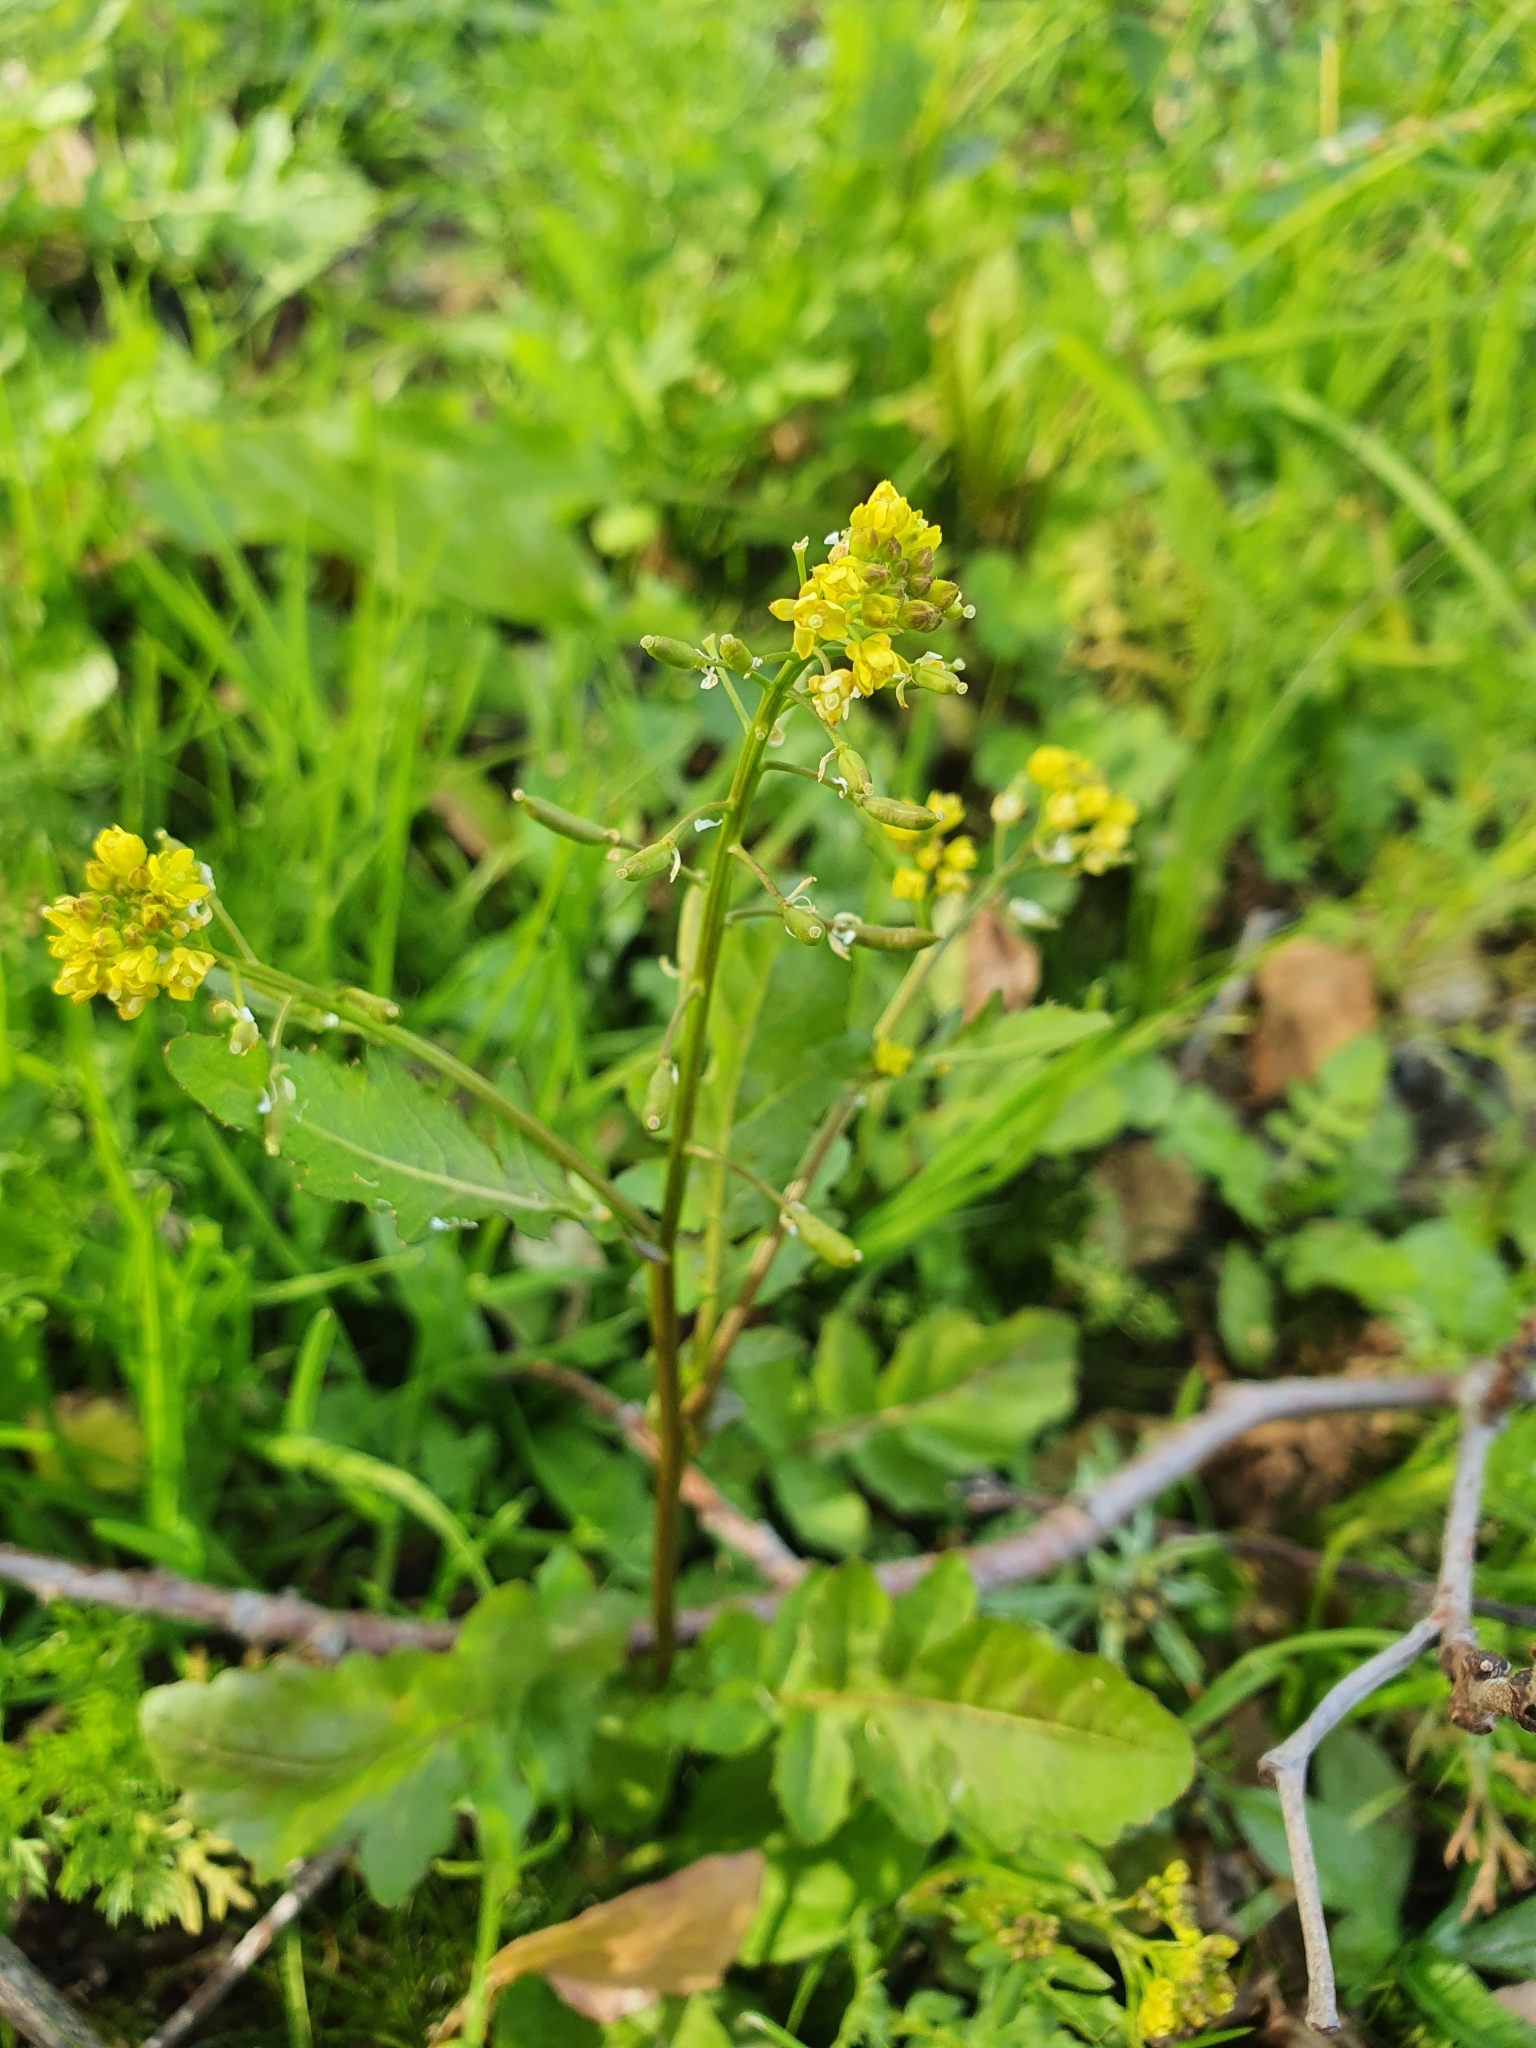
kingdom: Plantae
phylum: Tracheophyta
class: Magnoliopsida
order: Brassicales
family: Brassicaceae
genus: Rorippa
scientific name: Rorippa palustris
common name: Marsh yellow-cress
